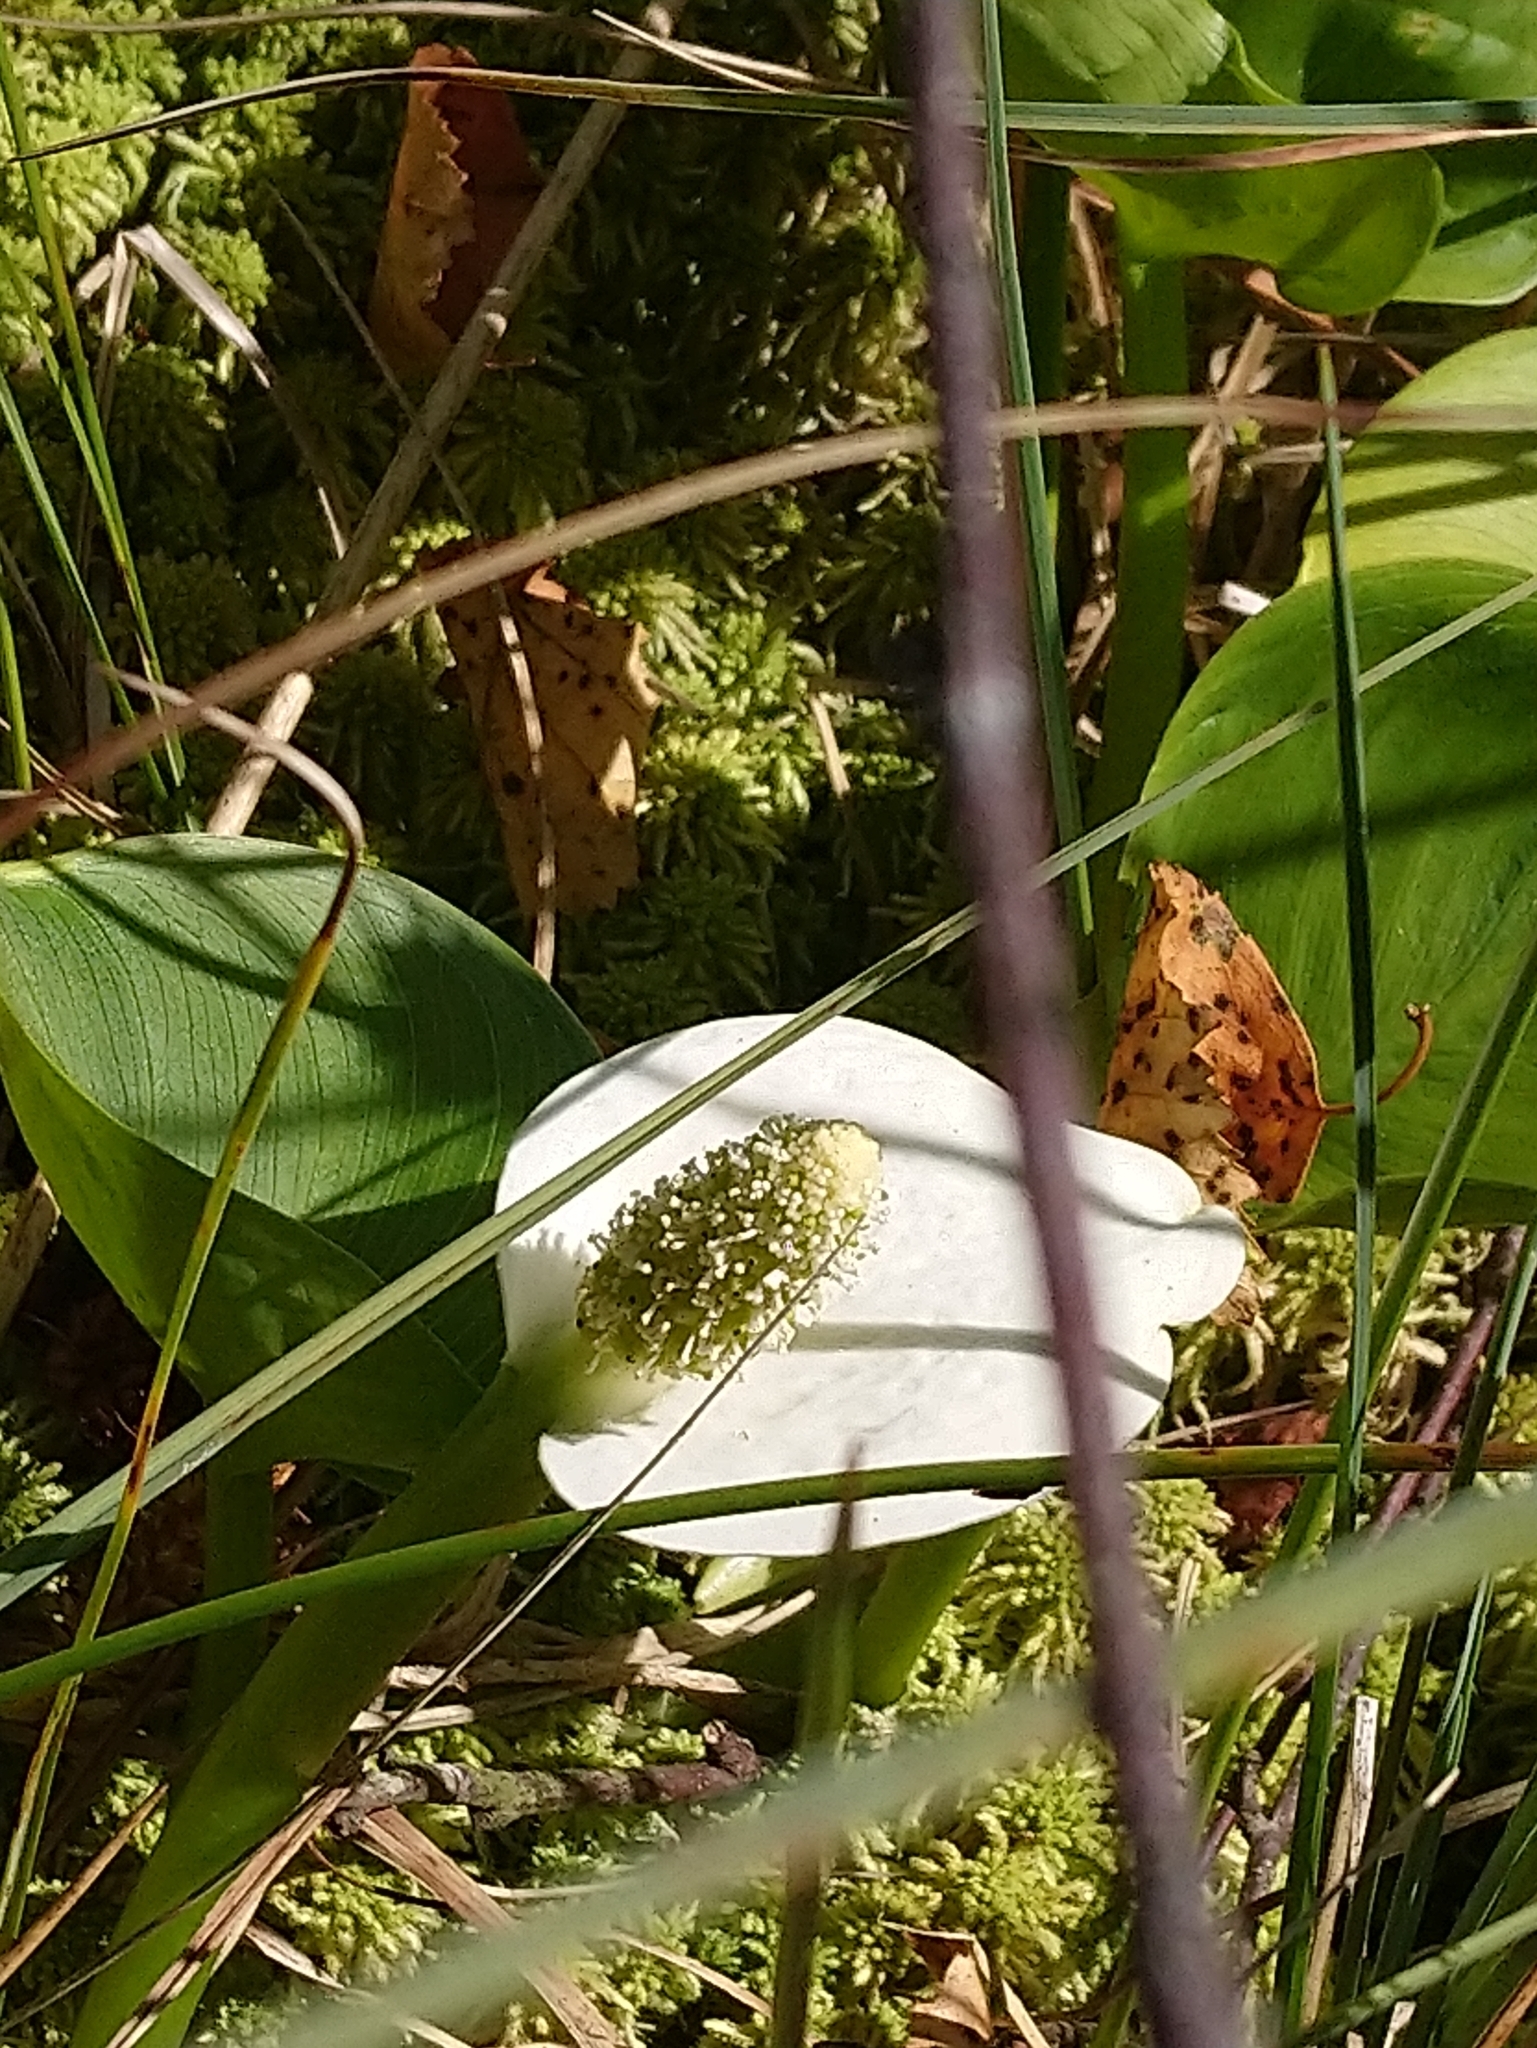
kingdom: Plantae
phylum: Tracheophyta
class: Liliopsida
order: Alismatales
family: Araceae
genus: Calla
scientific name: Calla palustris
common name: Bog arum
